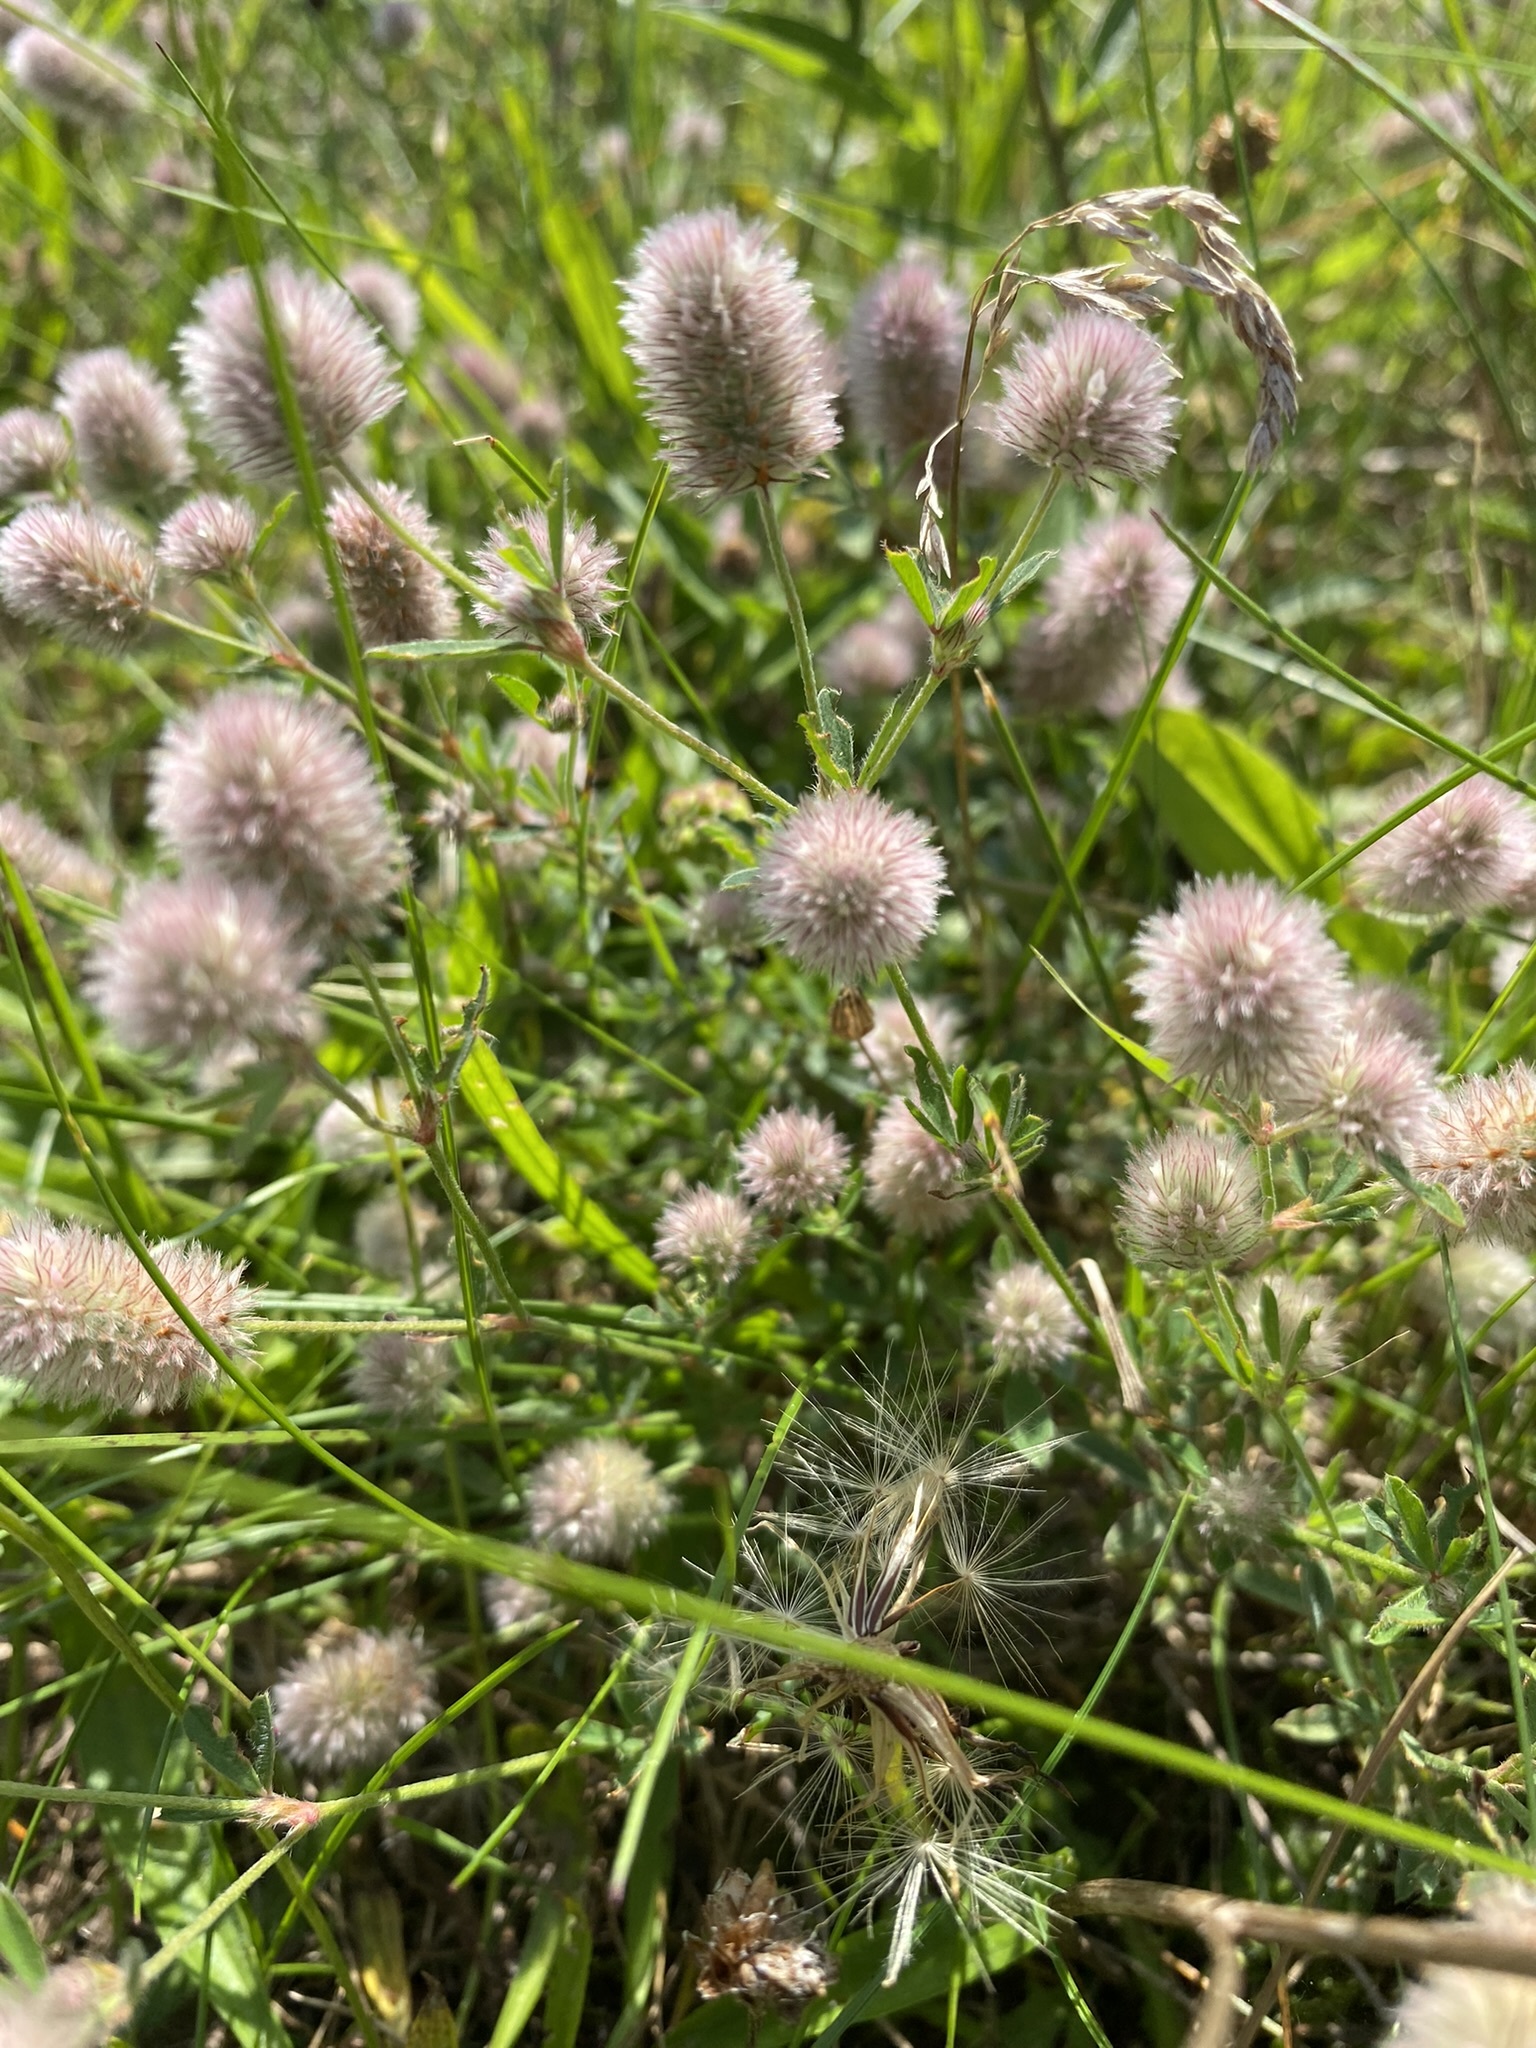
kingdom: Plantae
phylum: Tracheophyta
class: Magnoliopsida
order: Fabales
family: Fabaceae
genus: Trifolium
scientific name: Trifolium arvense
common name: Hare's-foot clover
